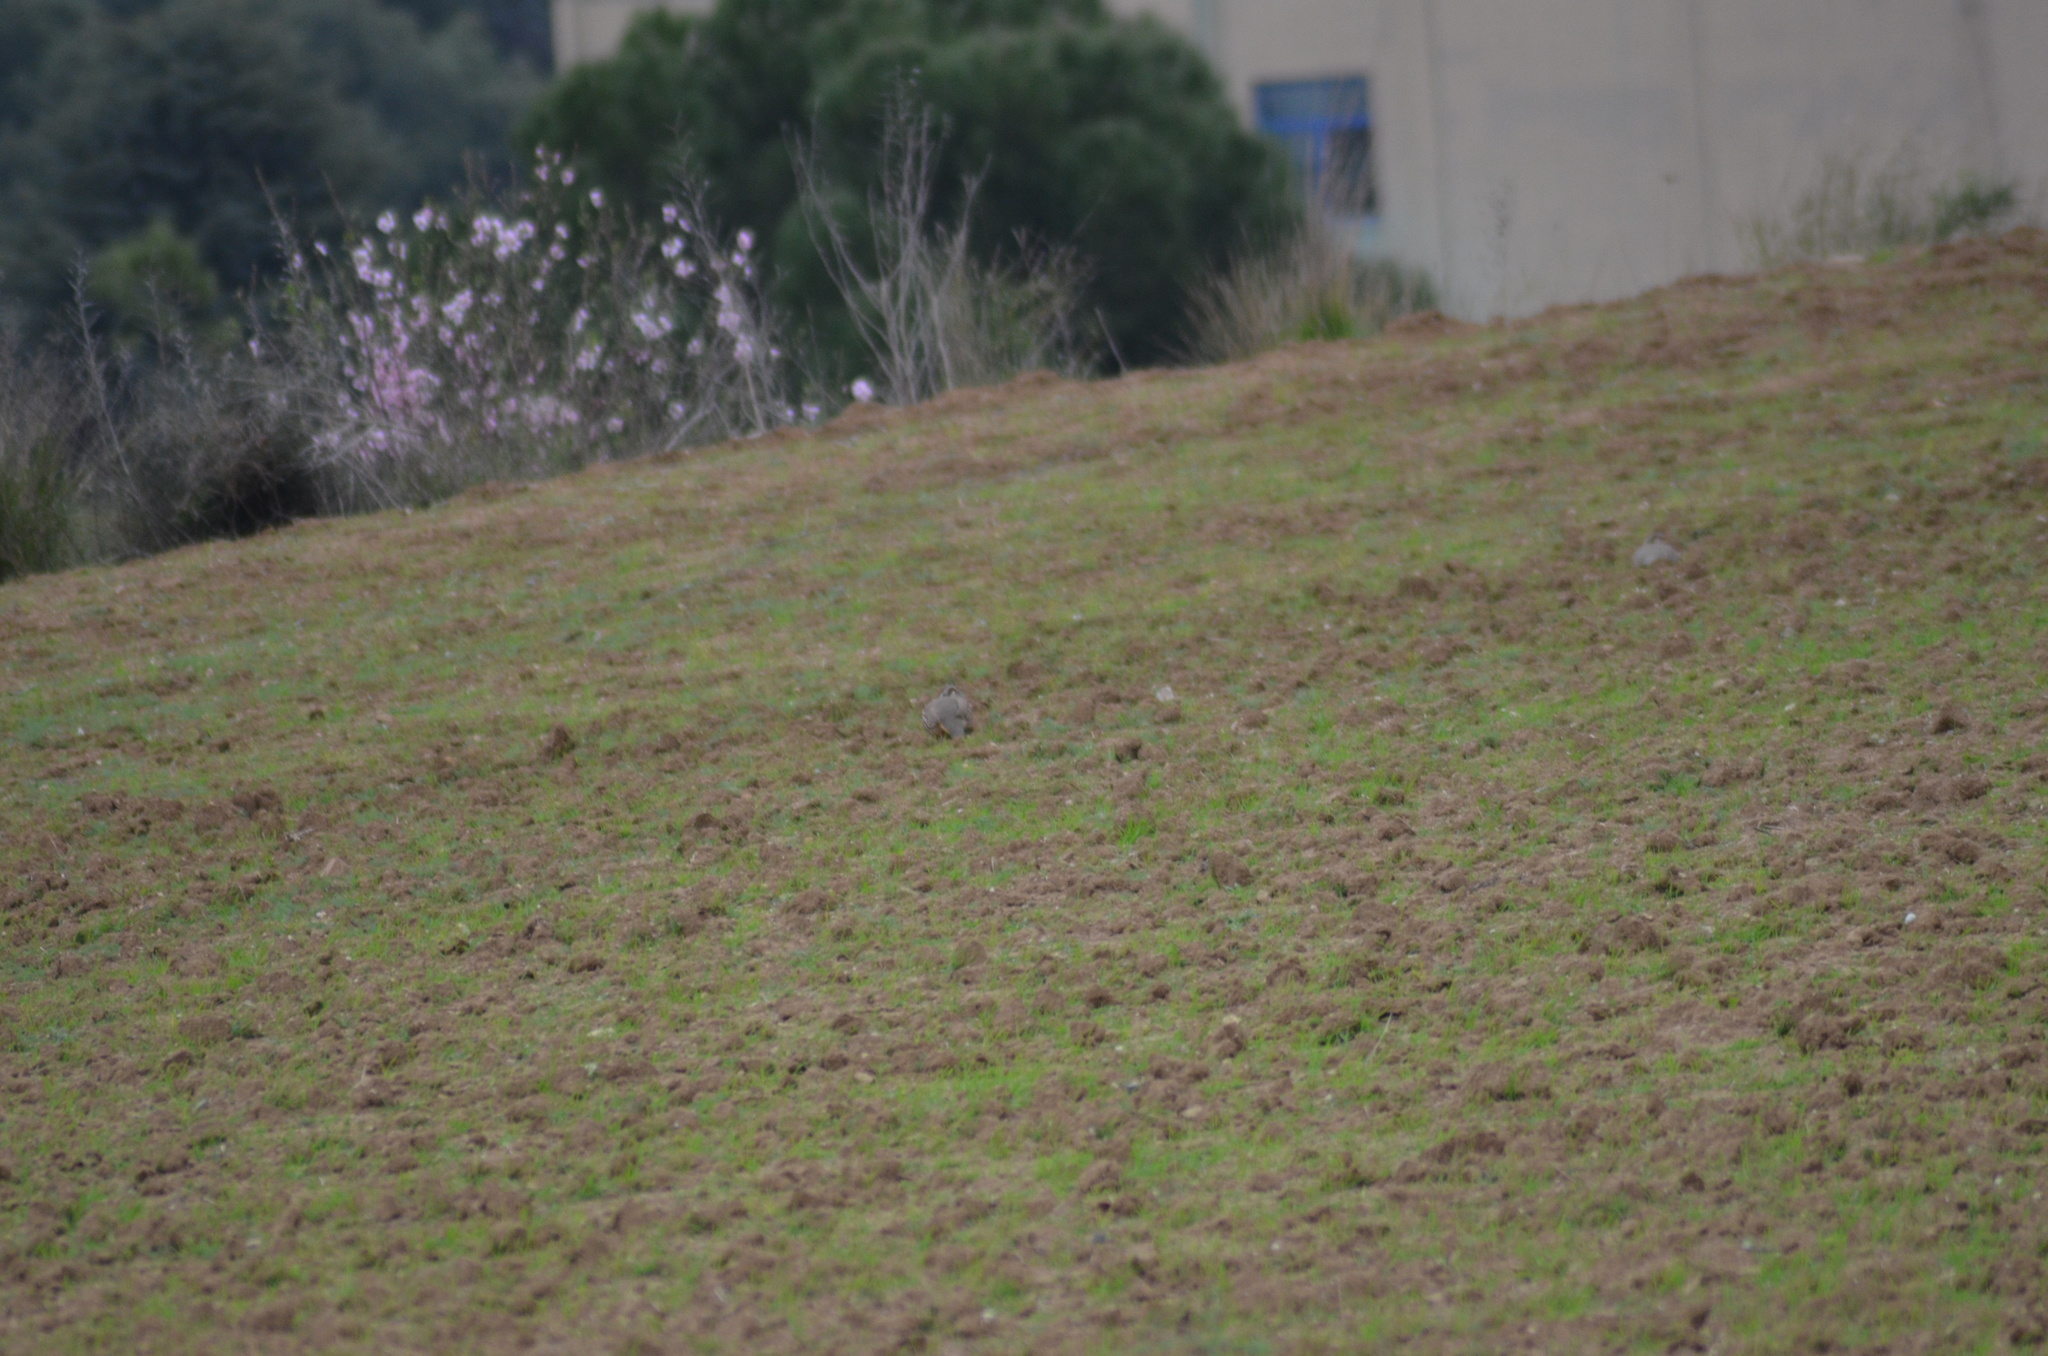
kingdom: Animalia
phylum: Chordata
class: Aves
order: Galliformes
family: Phasianidae
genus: Alectoris
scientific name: Alectoris rufa
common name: Red-legged partridge
